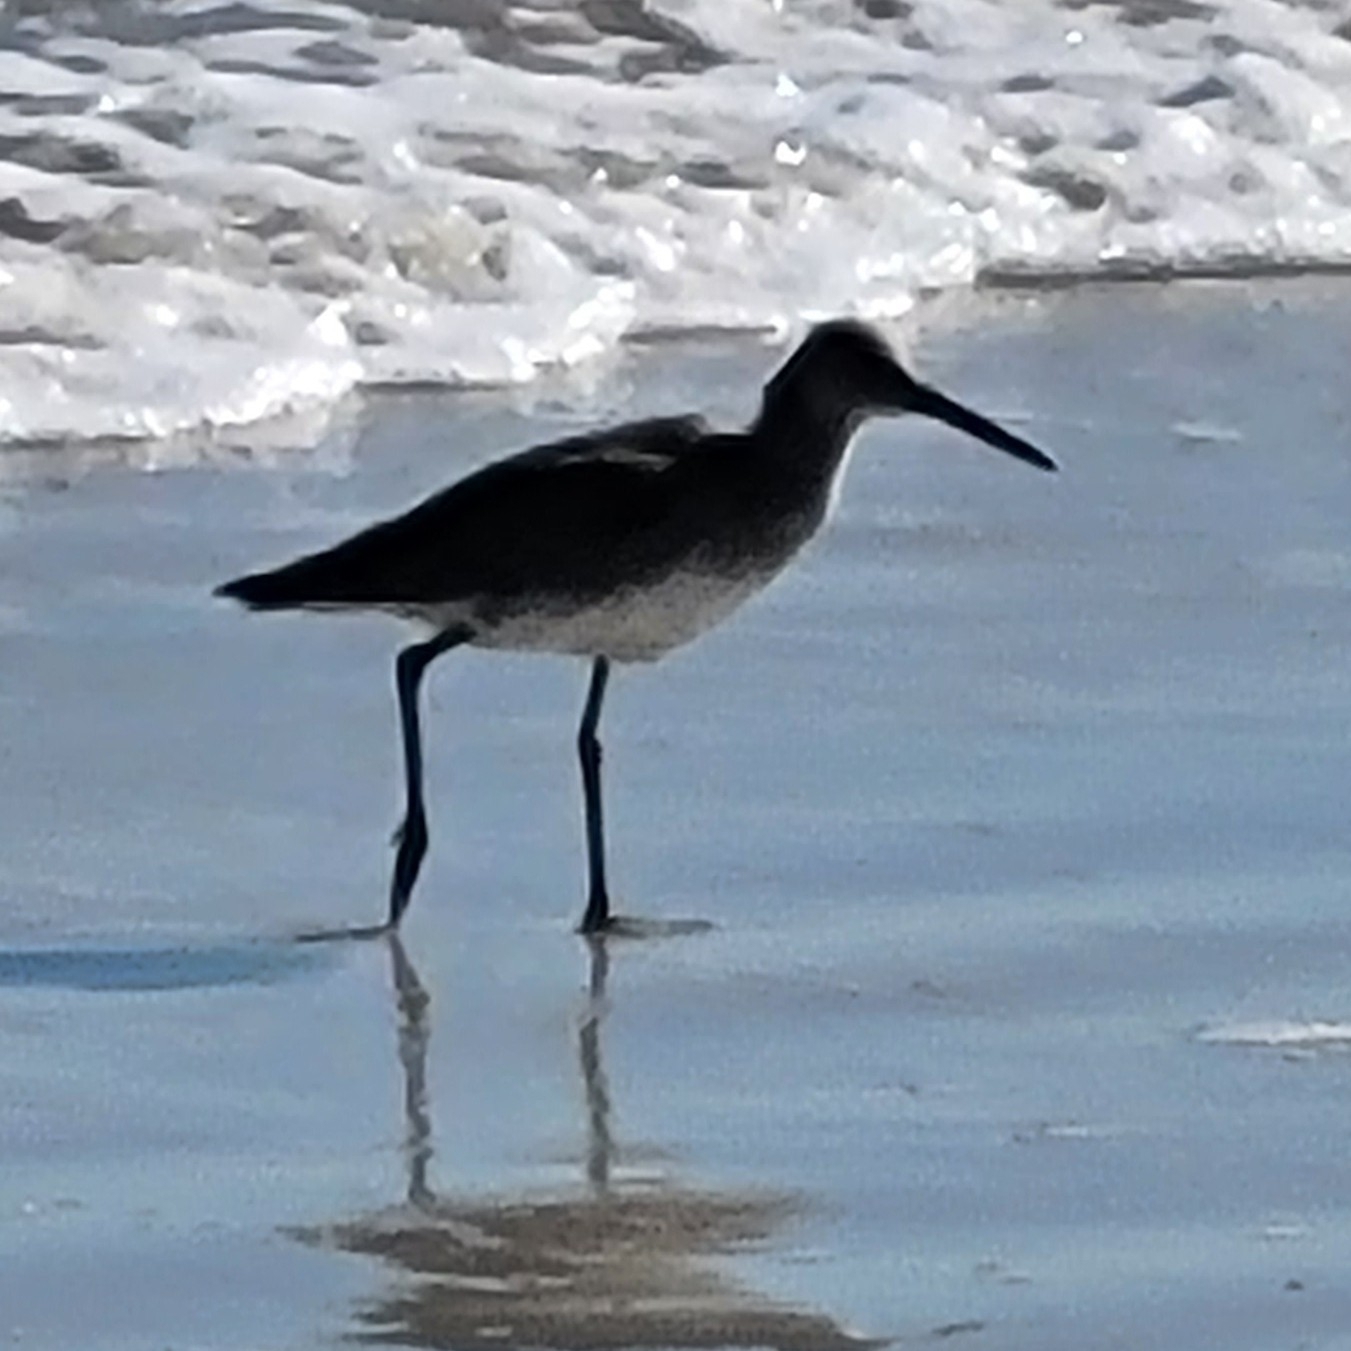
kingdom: Animalia
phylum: Chordata
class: Aves
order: Charadriiformes
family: Scolopacidae
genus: Tringa
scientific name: Tringa semipalmata
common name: Willet
